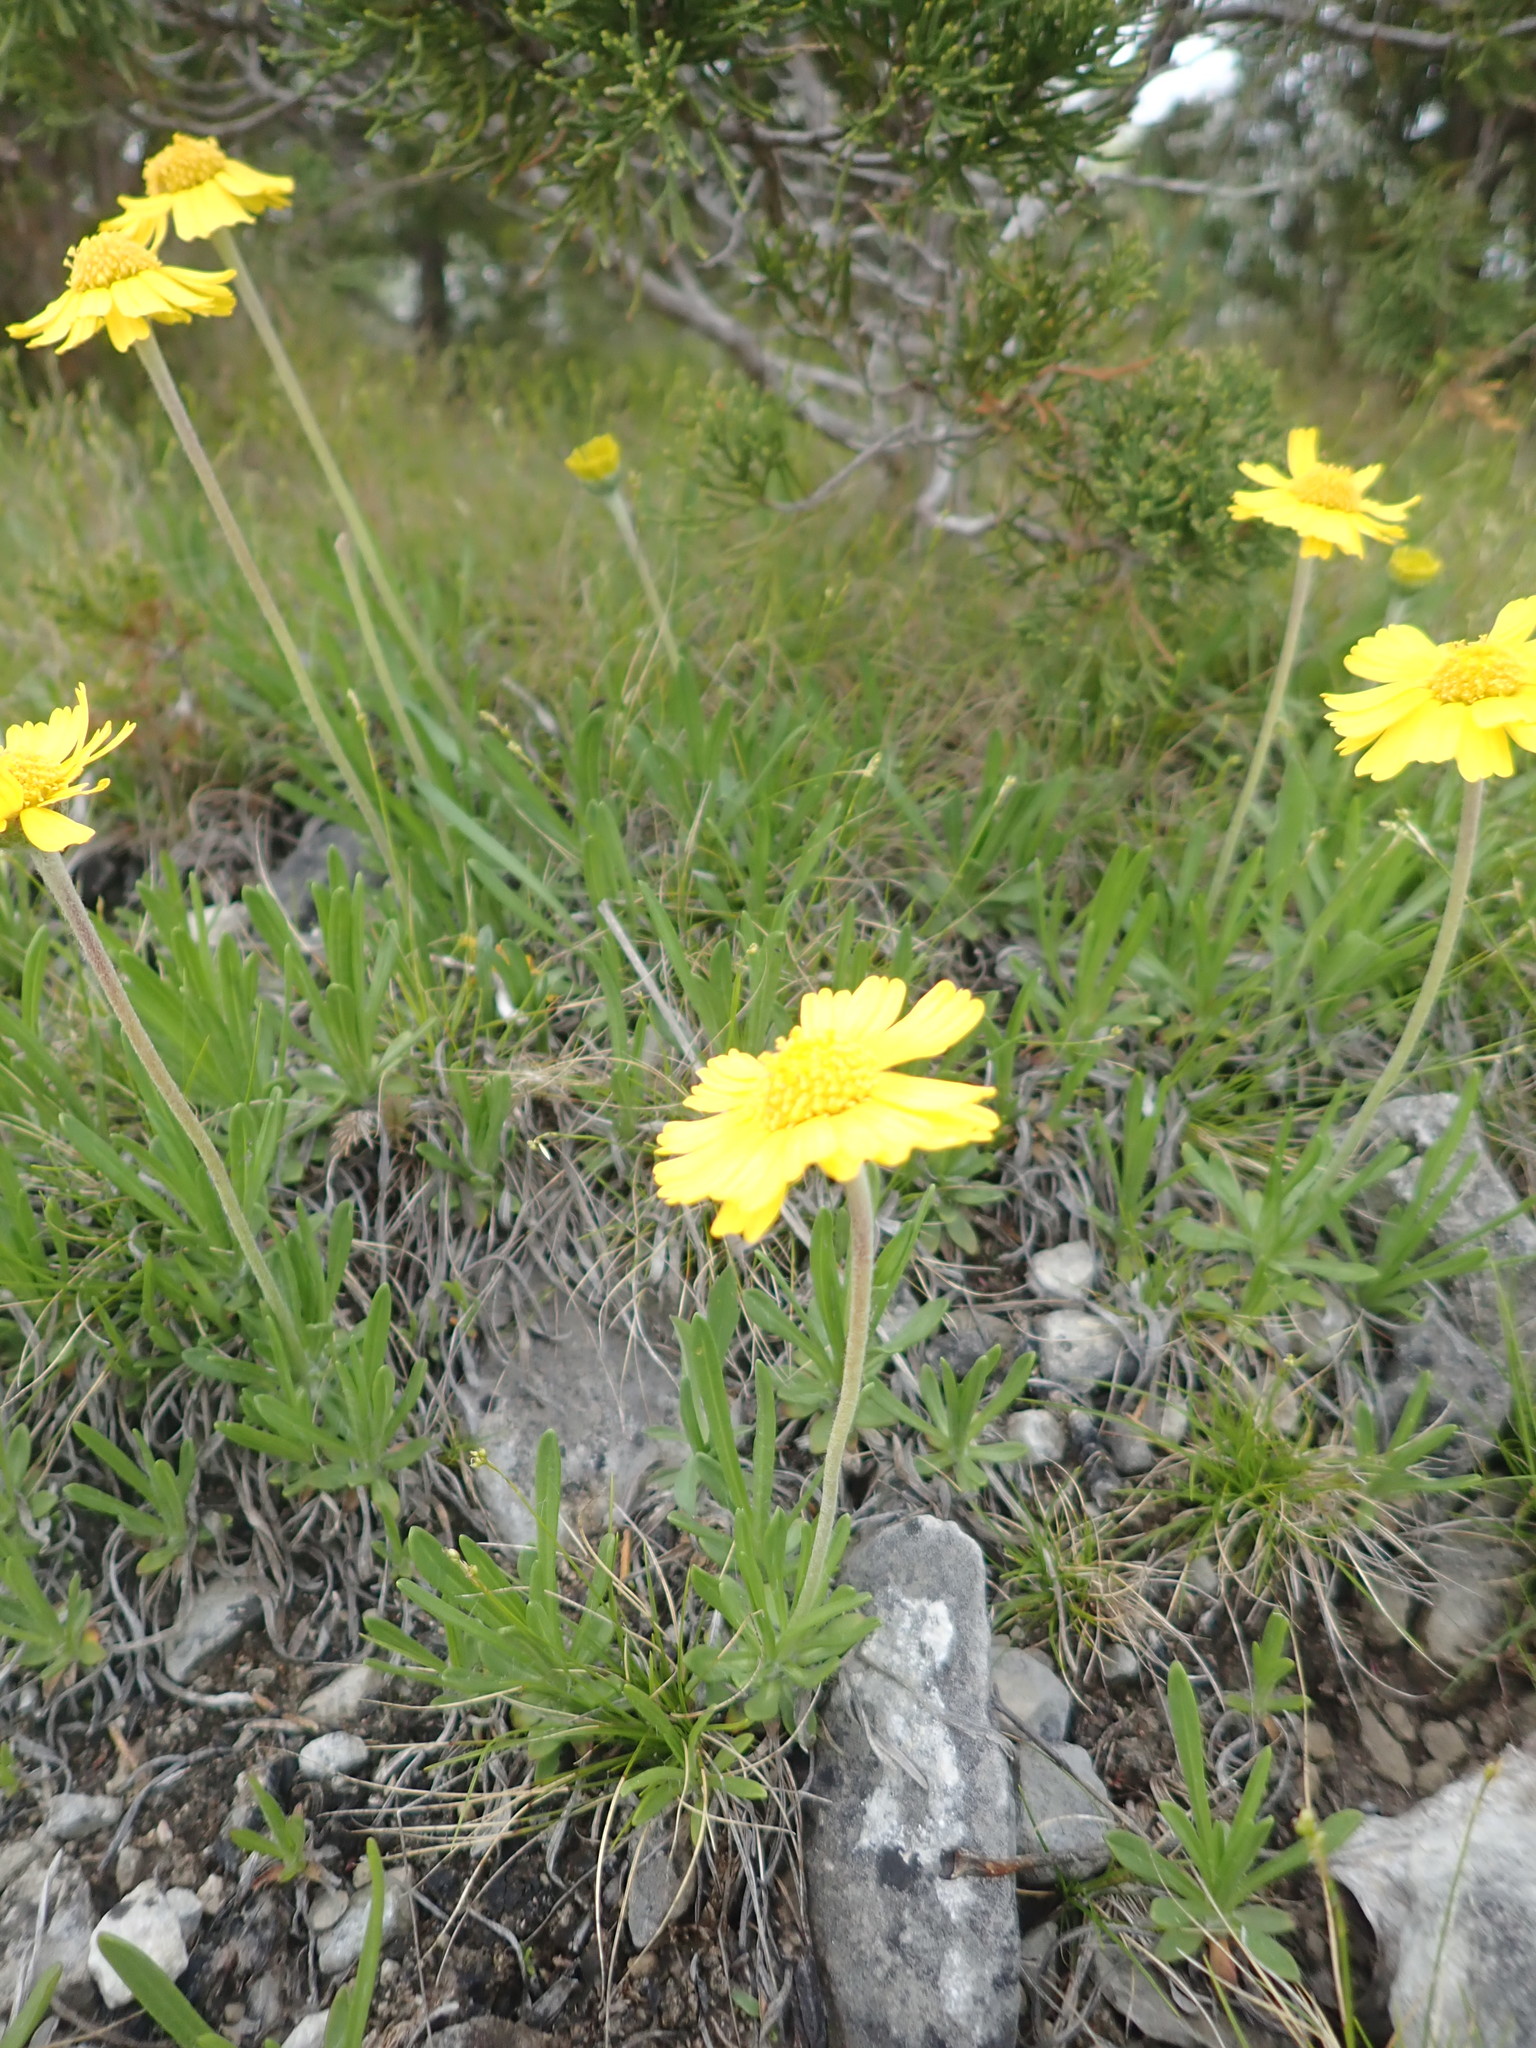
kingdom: Plantae
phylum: Tracheophyta
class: Magnoliopsida
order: Asterales
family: Asteraceae
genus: Tetraneuris
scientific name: Tetraneuris herbacea
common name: Lakeside daisy
